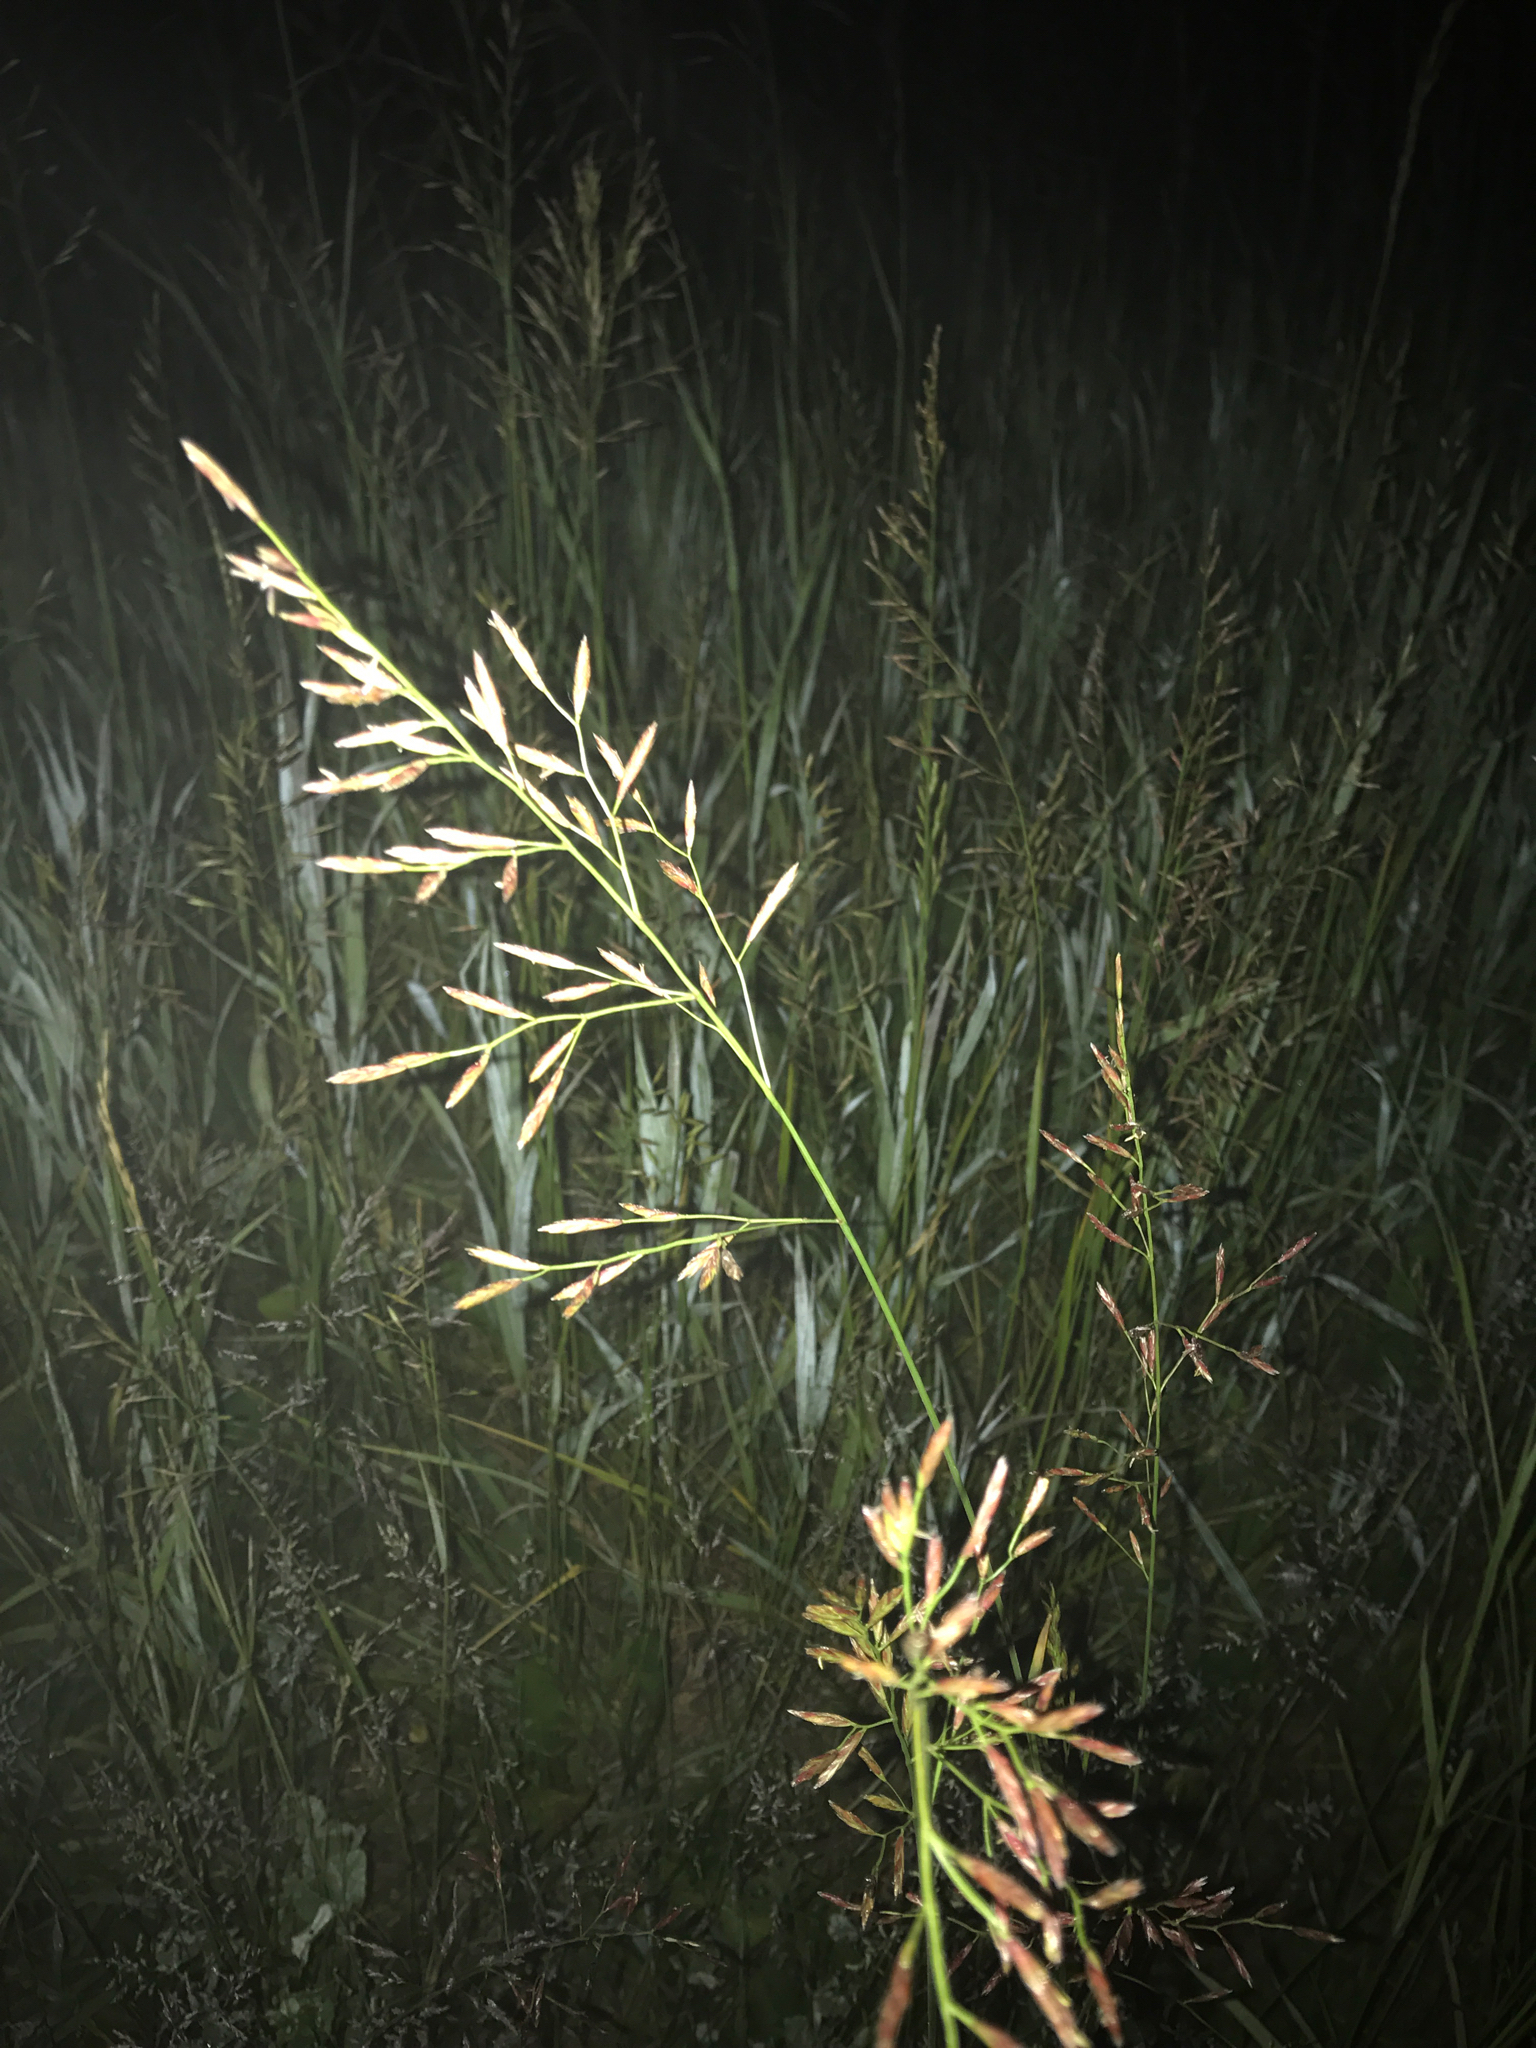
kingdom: Plantae
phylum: Tracheophyta
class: Liliopsida
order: Poales
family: Poaceae
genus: Lolium
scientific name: Lolium pratense
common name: Dover grass
